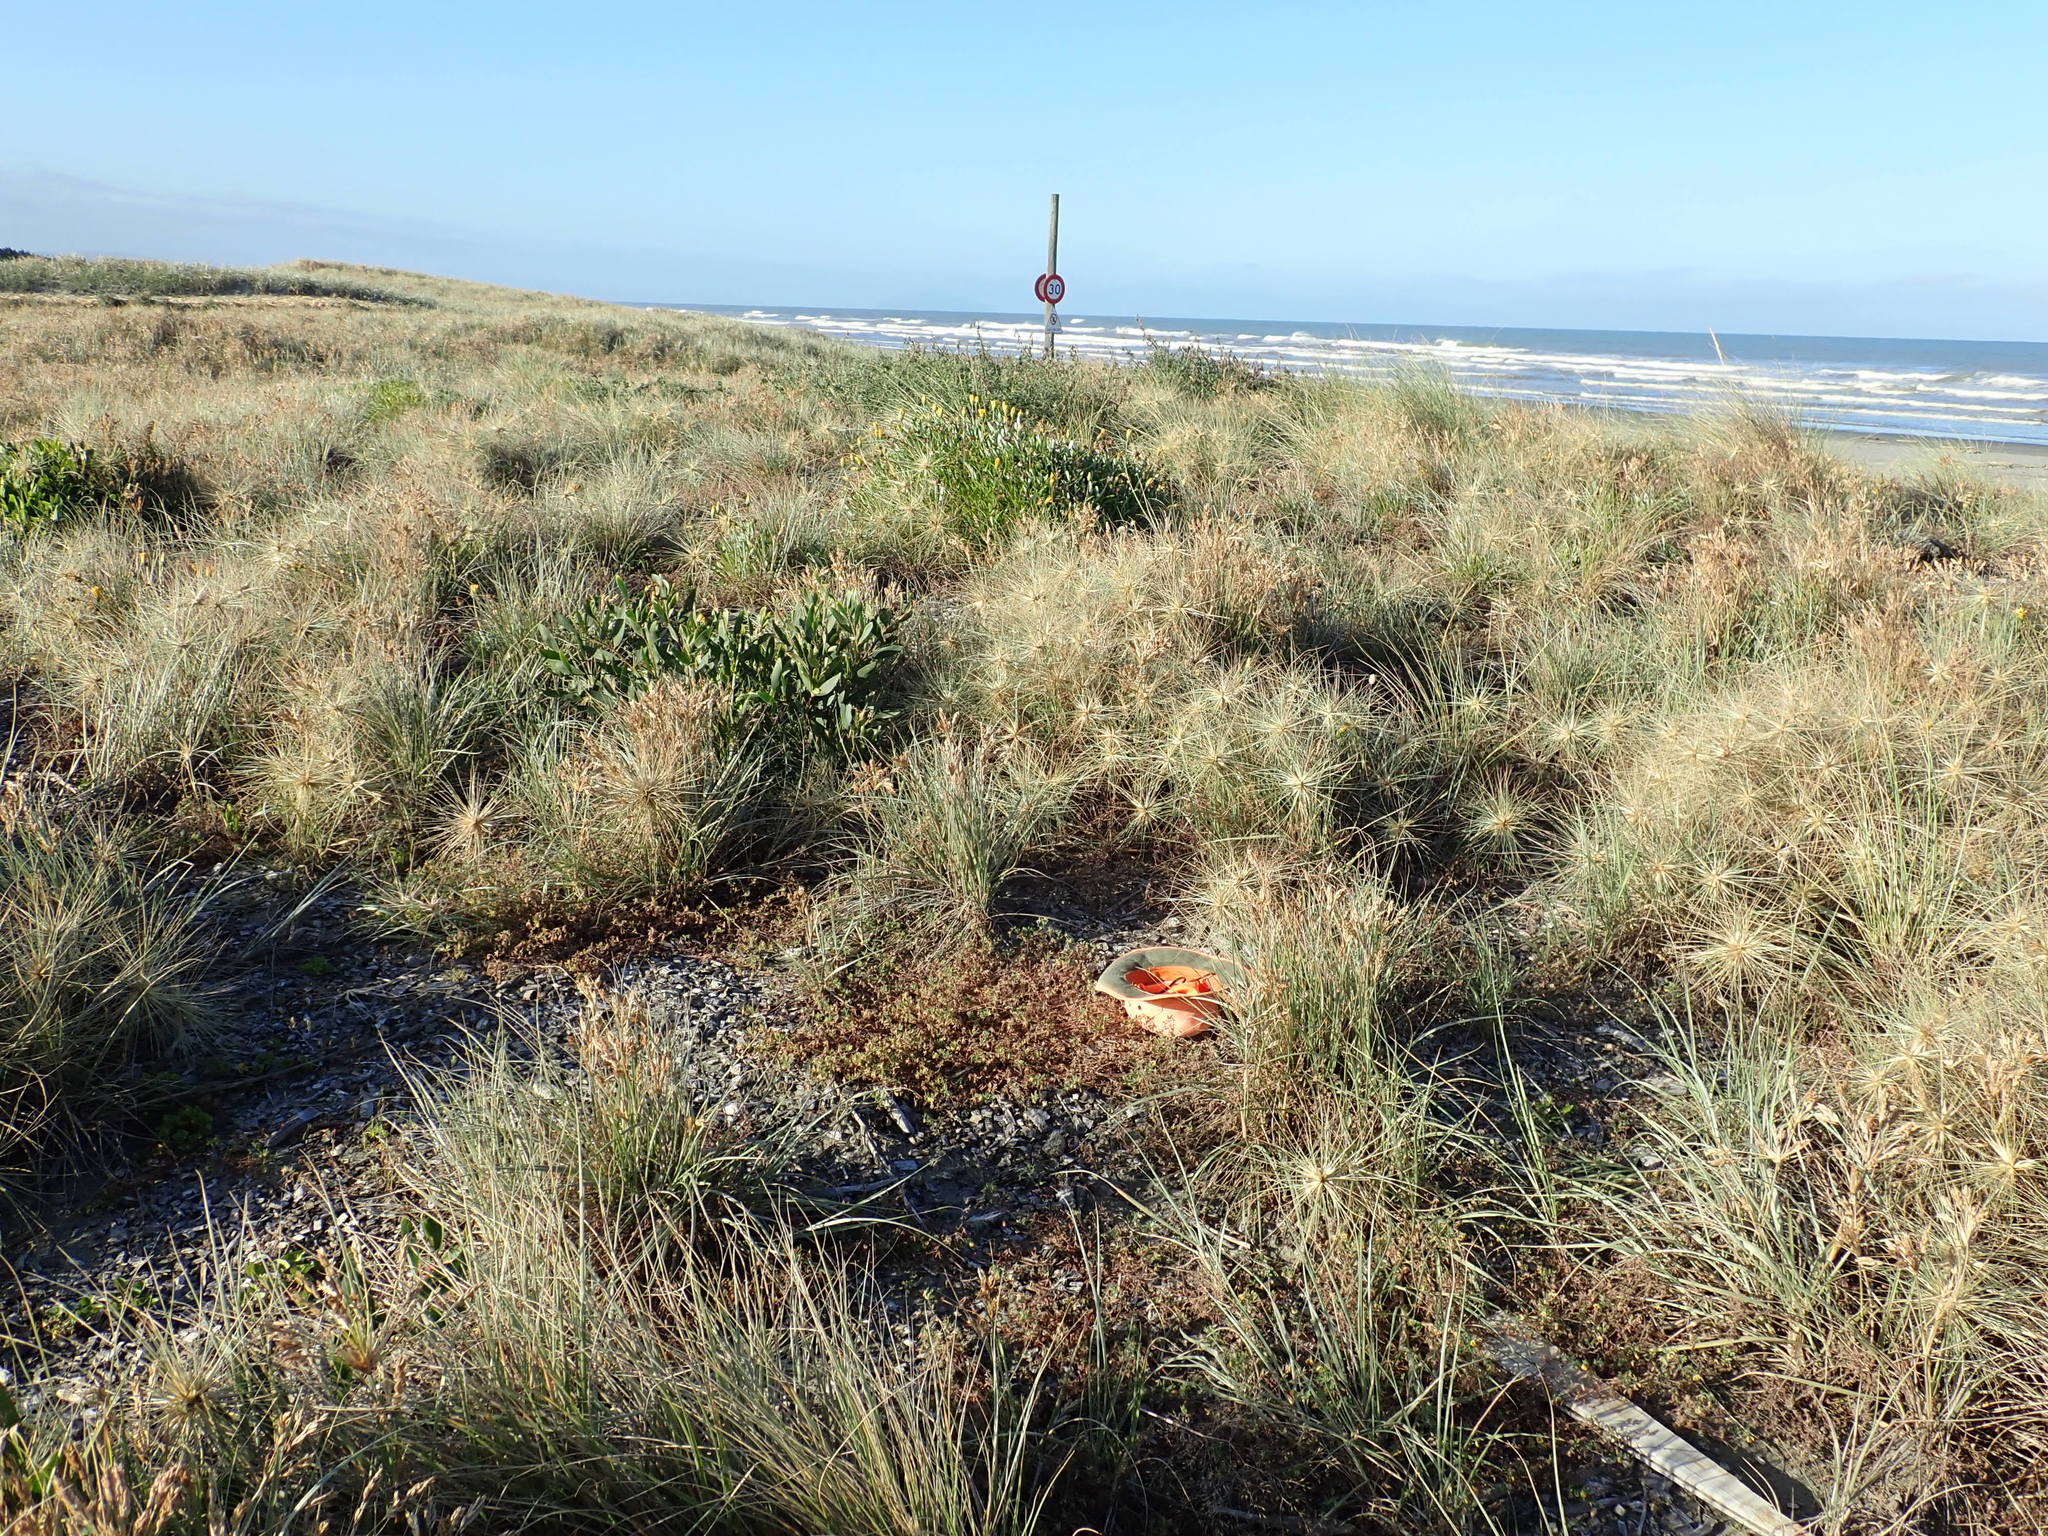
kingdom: Plantae
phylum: Tracheophyta
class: Magnoliopsida
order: Fabales
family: Fabaceae
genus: Lotus
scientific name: Lotus subbiflorus
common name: Hairy bird's-foot trefoil
